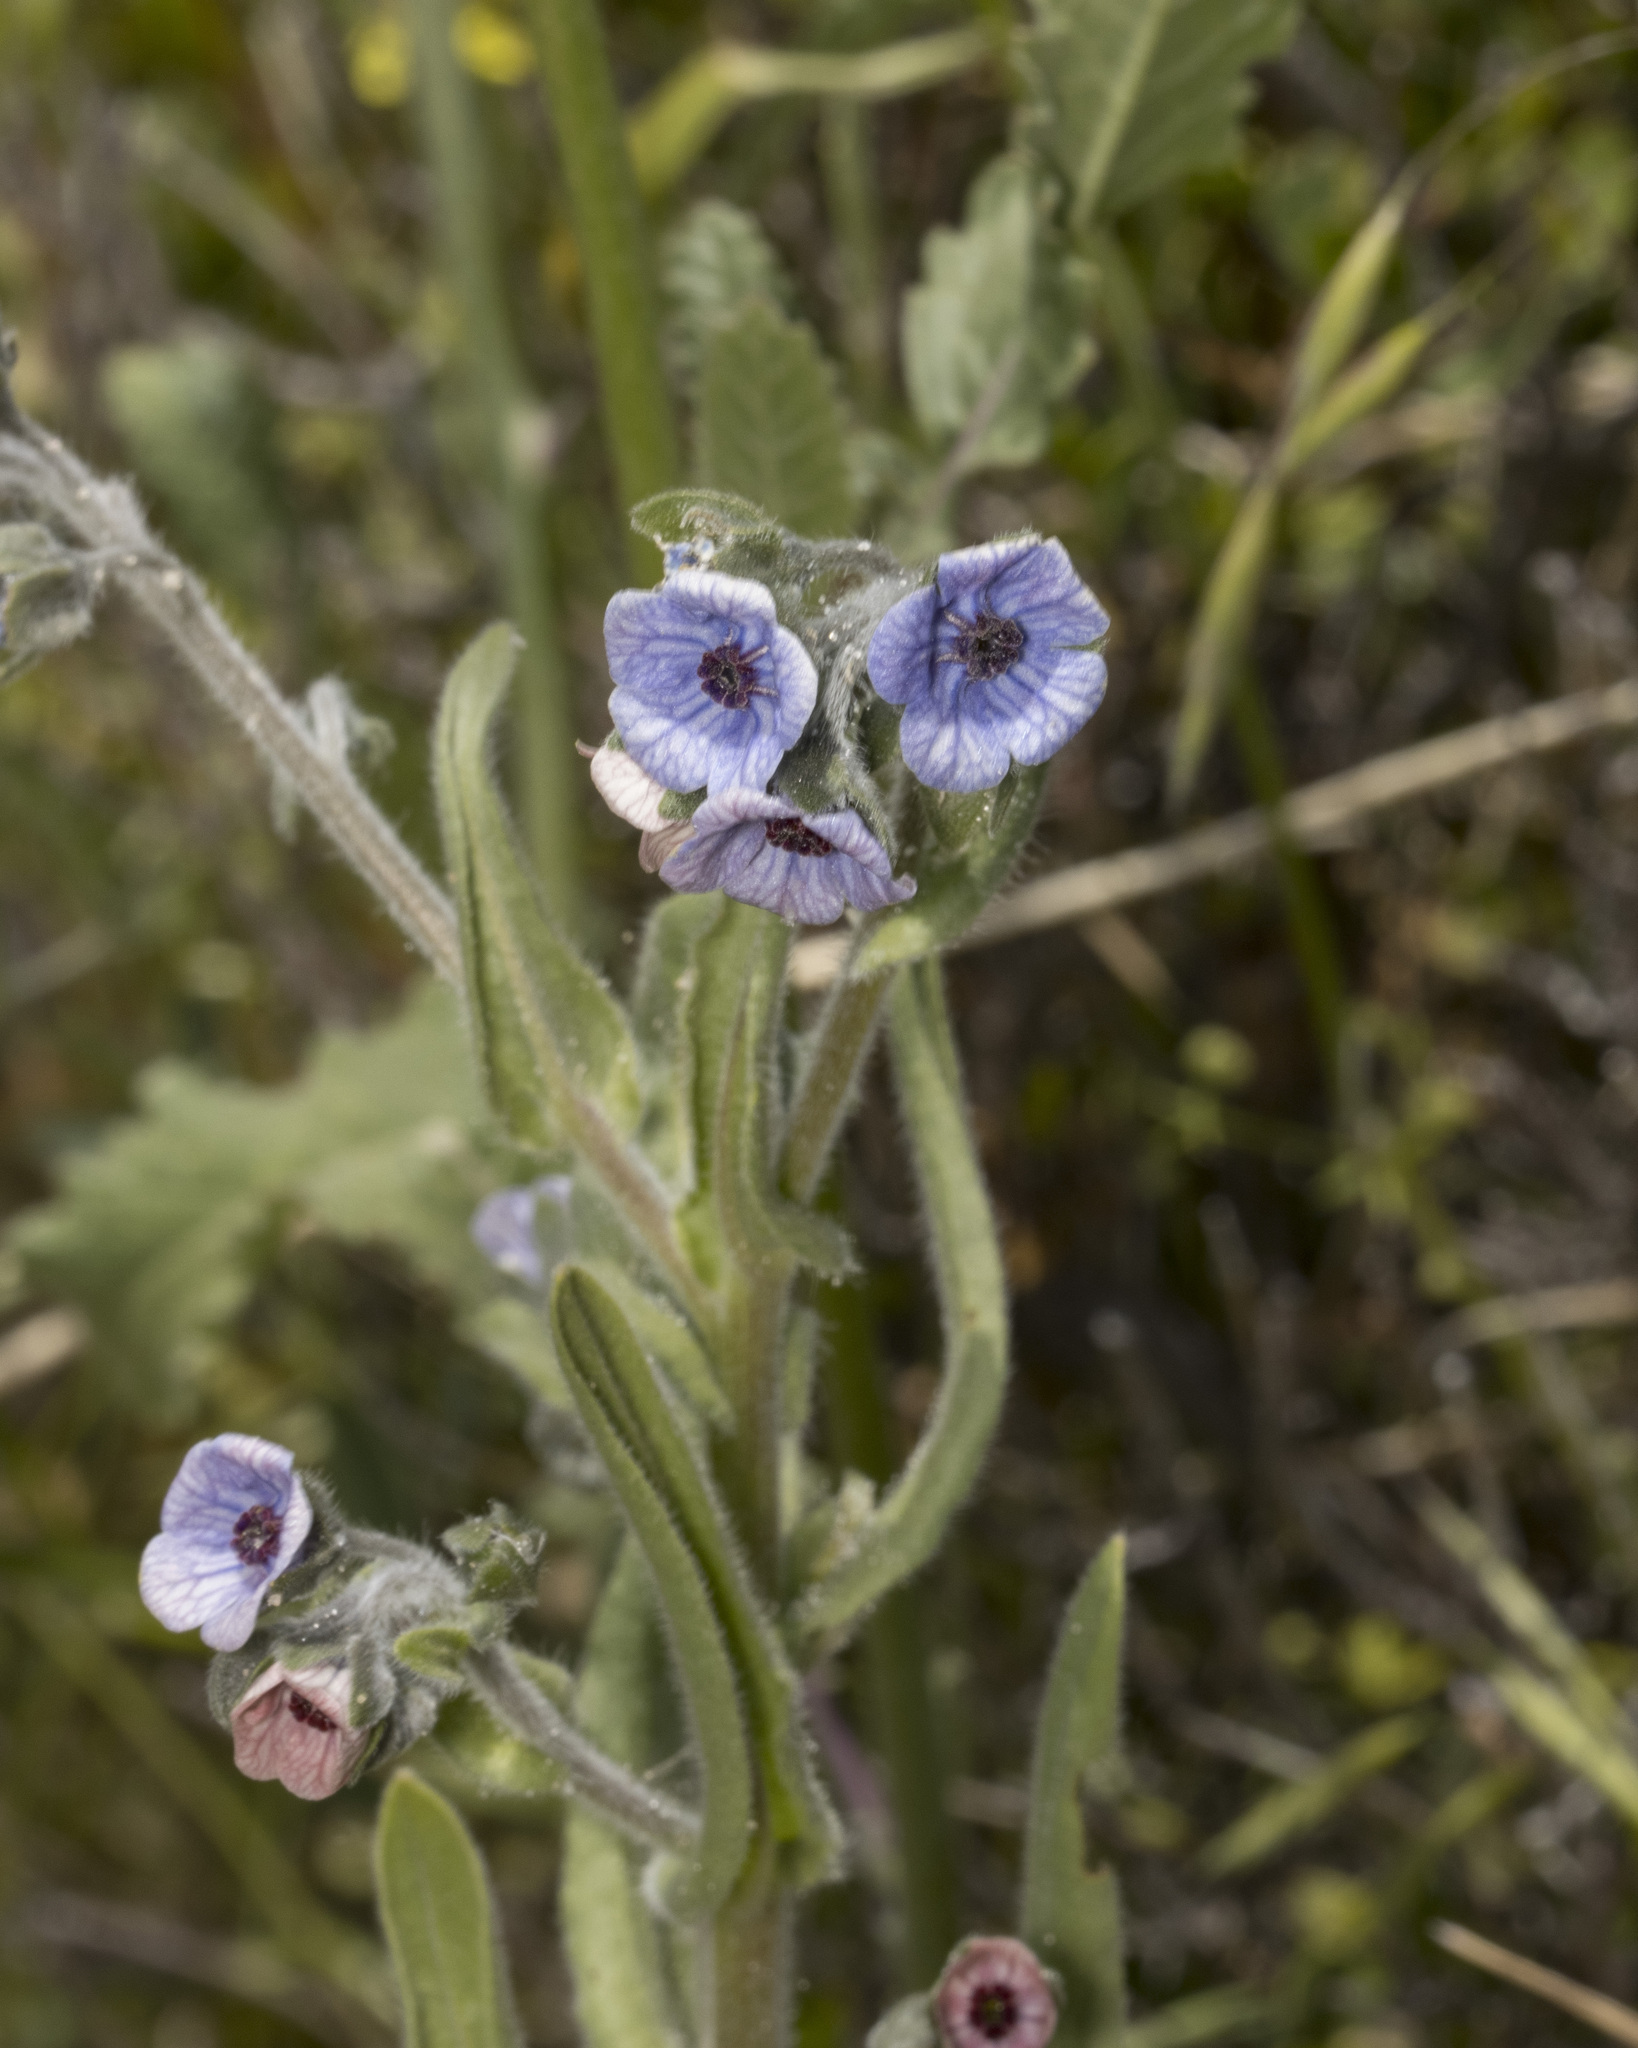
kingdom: Plantae
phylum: Tracheophyta
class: Magnoliopsida
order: Boraginales
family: Boraginaceae
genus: Cynoglossum
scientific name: Cynoglossum creticum
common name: Blue hound's tongue
